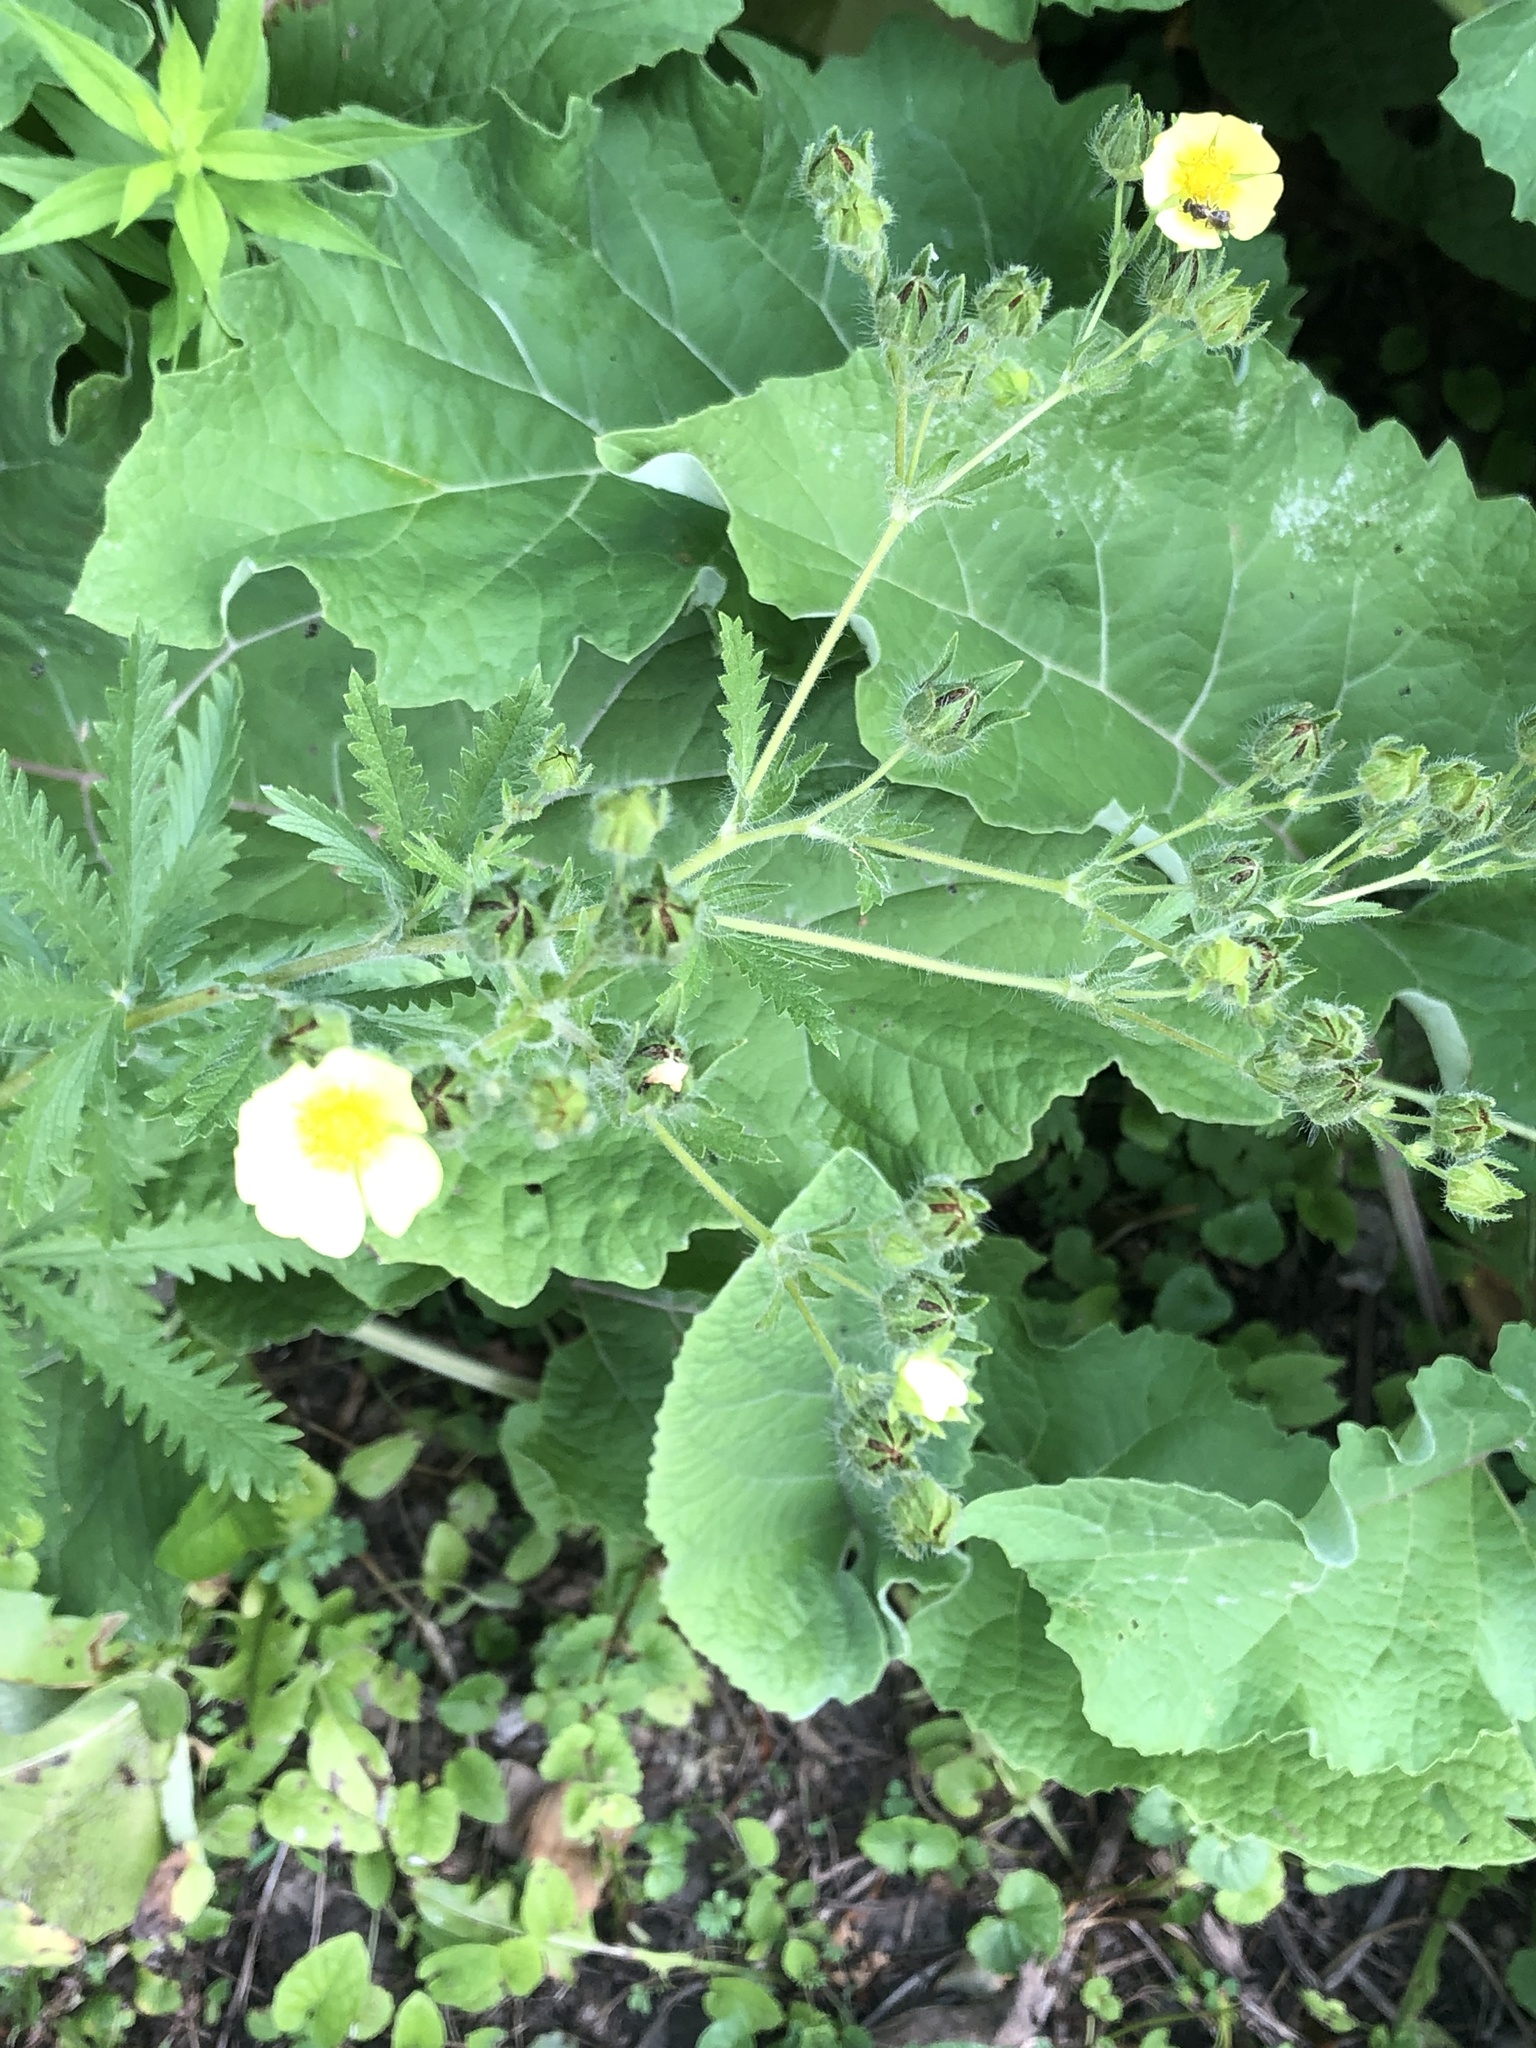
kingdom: Plantae
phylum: Tracheophyta
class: Magnoliopsida
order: Rosales
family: Rosaceae
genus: Potentilla
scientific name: Potentilla recta
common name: Sulphur cinquefoil
